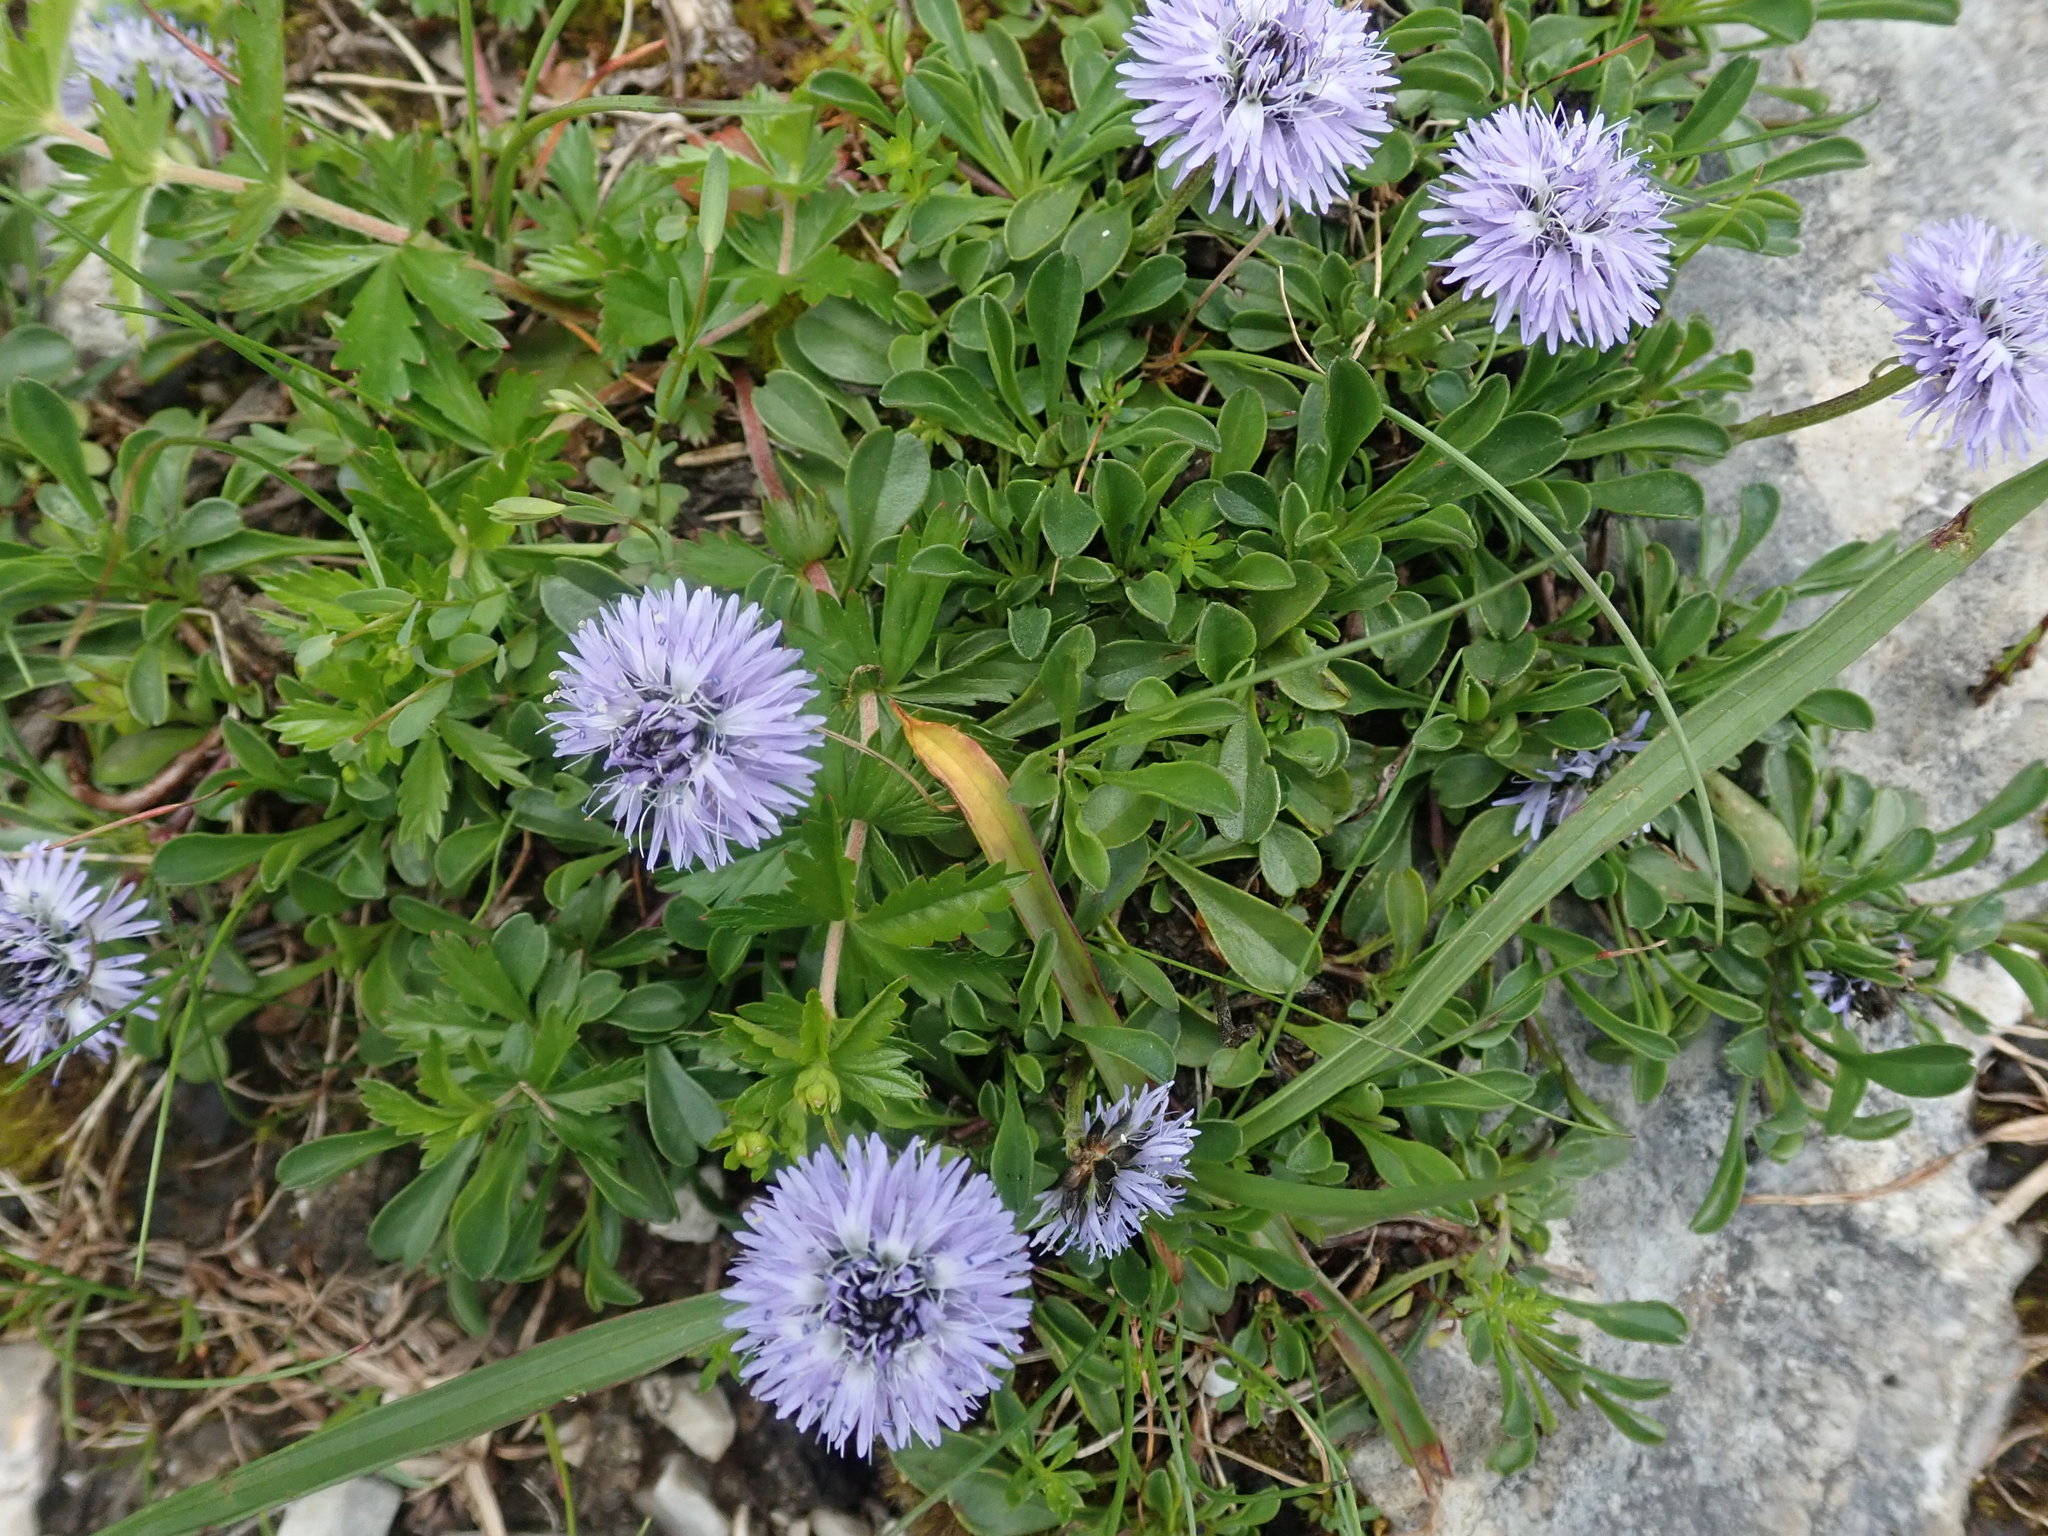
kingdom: Plantae
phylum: Tracheophyta
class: Magnoliopsida
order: Lamiales
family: Plantaginaceae
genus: Globularia
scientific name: Globularia cordifolia
